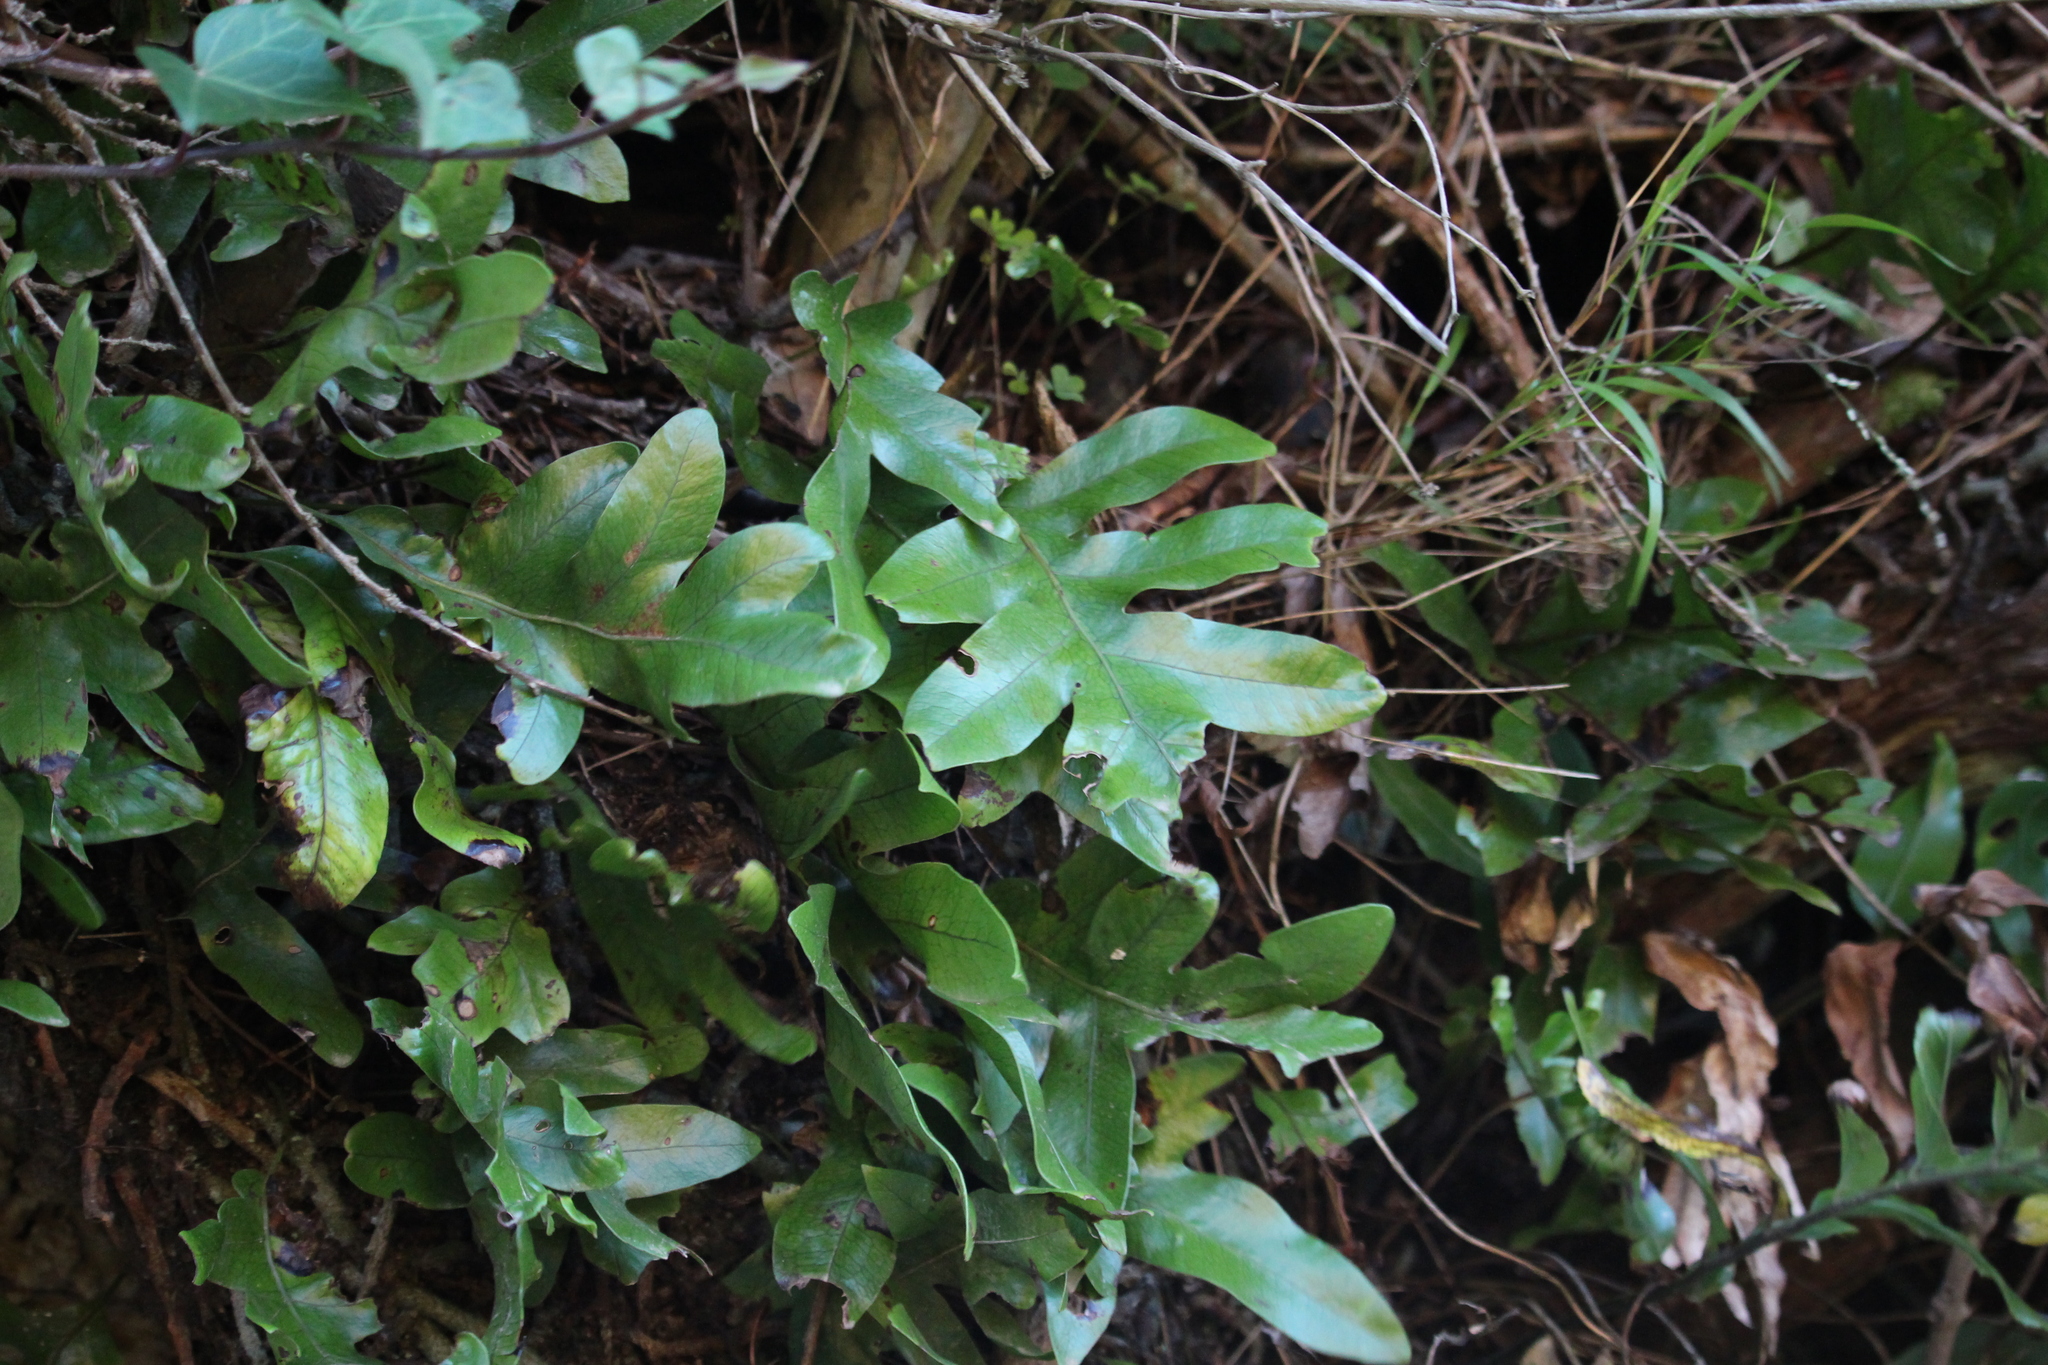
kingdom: Plantae
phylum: Tracheophyta
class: Polypodiopsida
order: Polypodiales
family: Polypodiaceae
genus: Lecanopteris
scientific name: Lecanopteris pustulata
